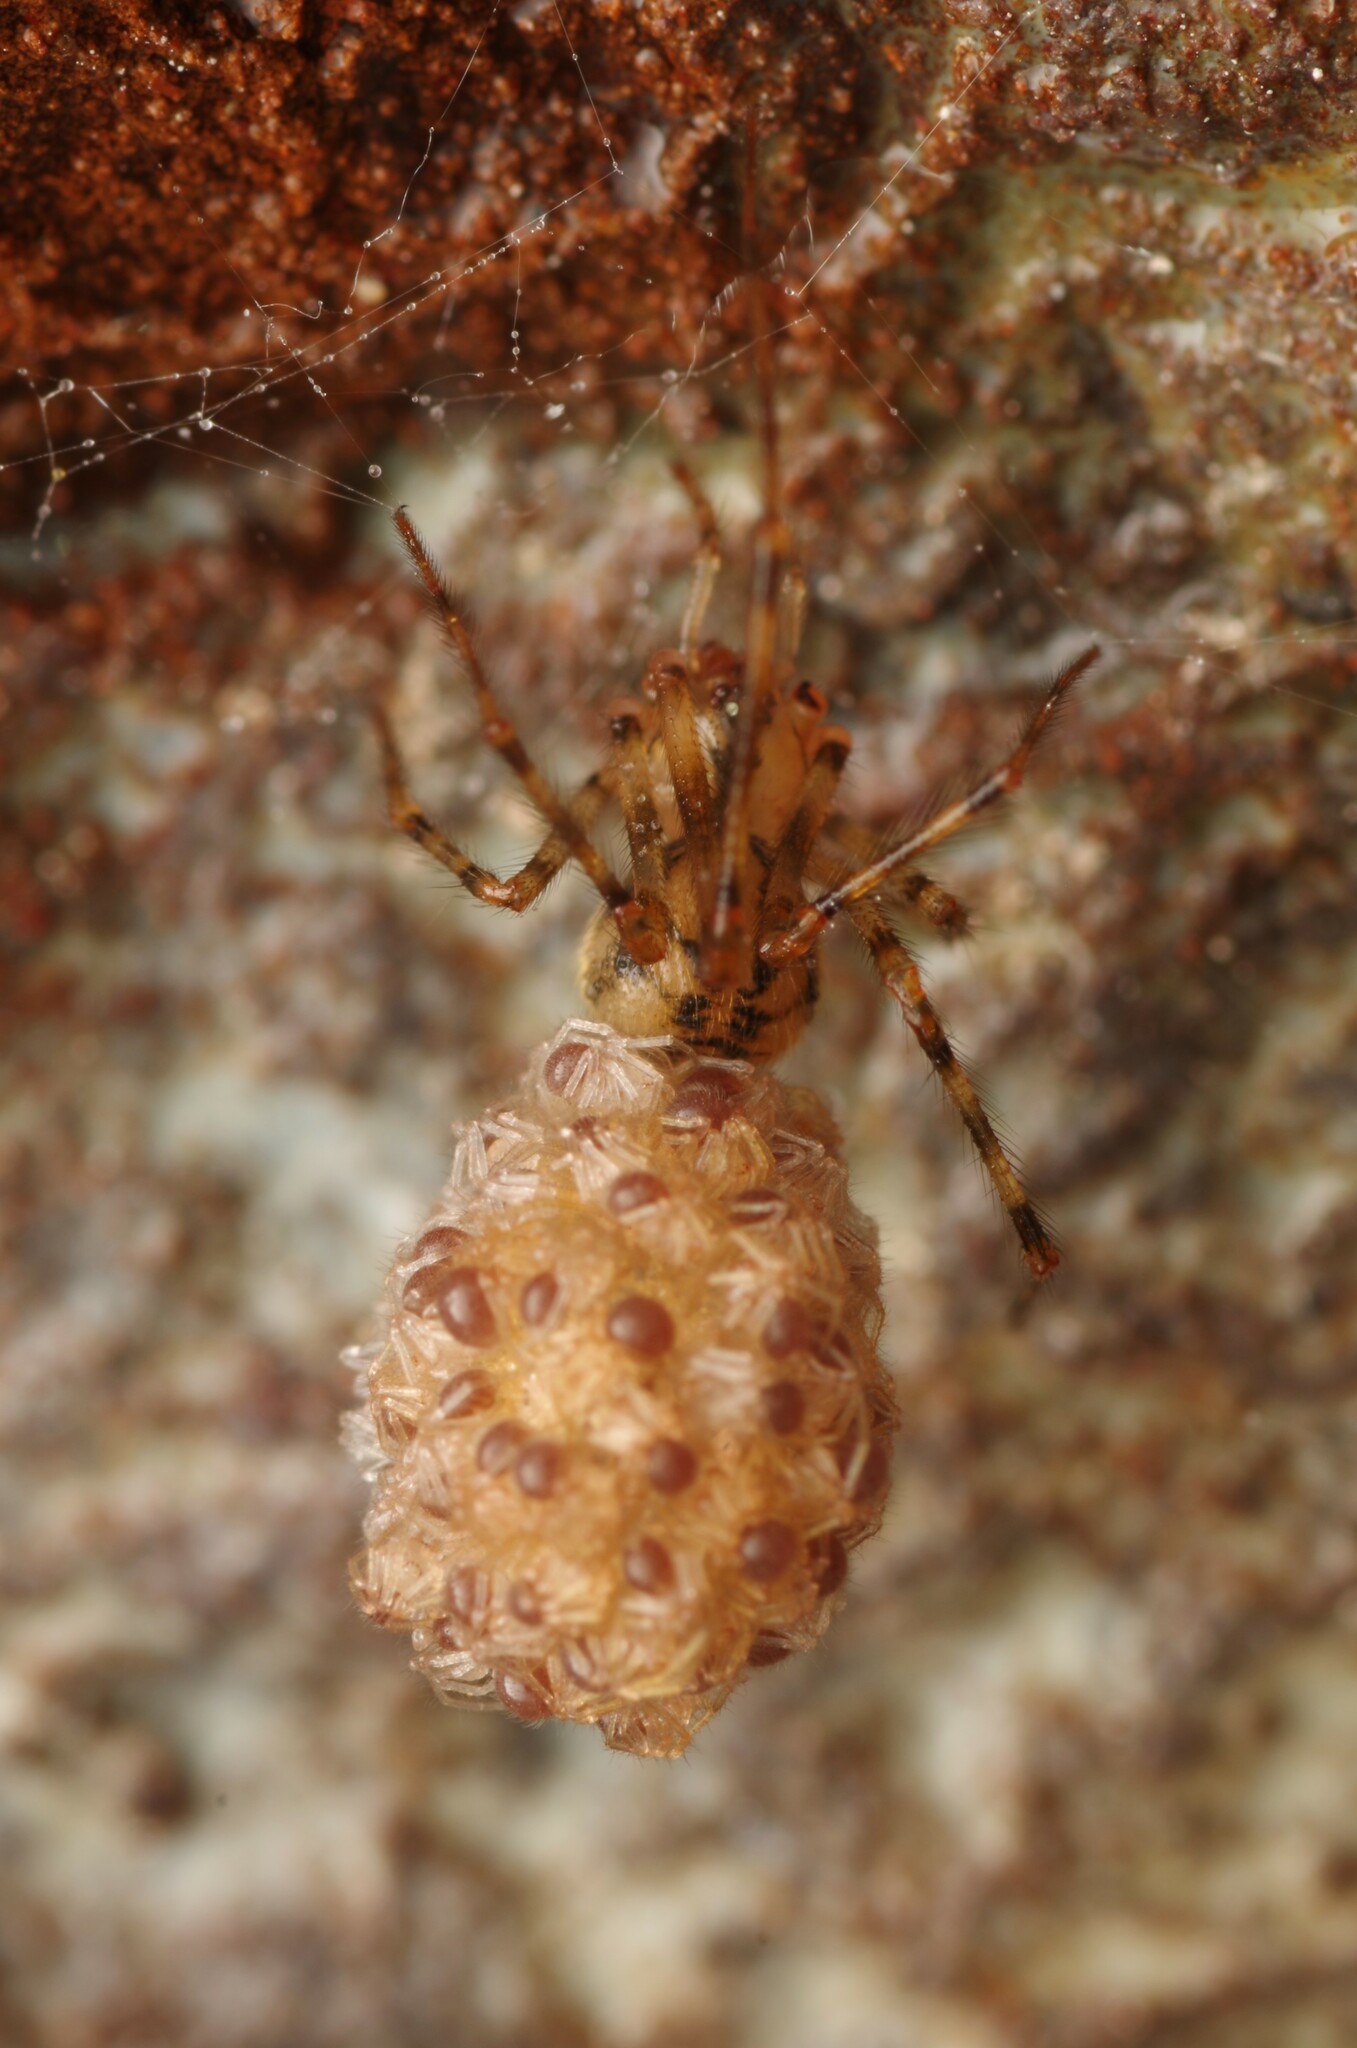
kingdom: Animalia
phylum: Arthropoda
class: Arachnida
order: Araneae
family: Nesticidae
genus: Nesticus
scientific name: Nesticus cellulanus
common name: Comb-footed cellar spider
